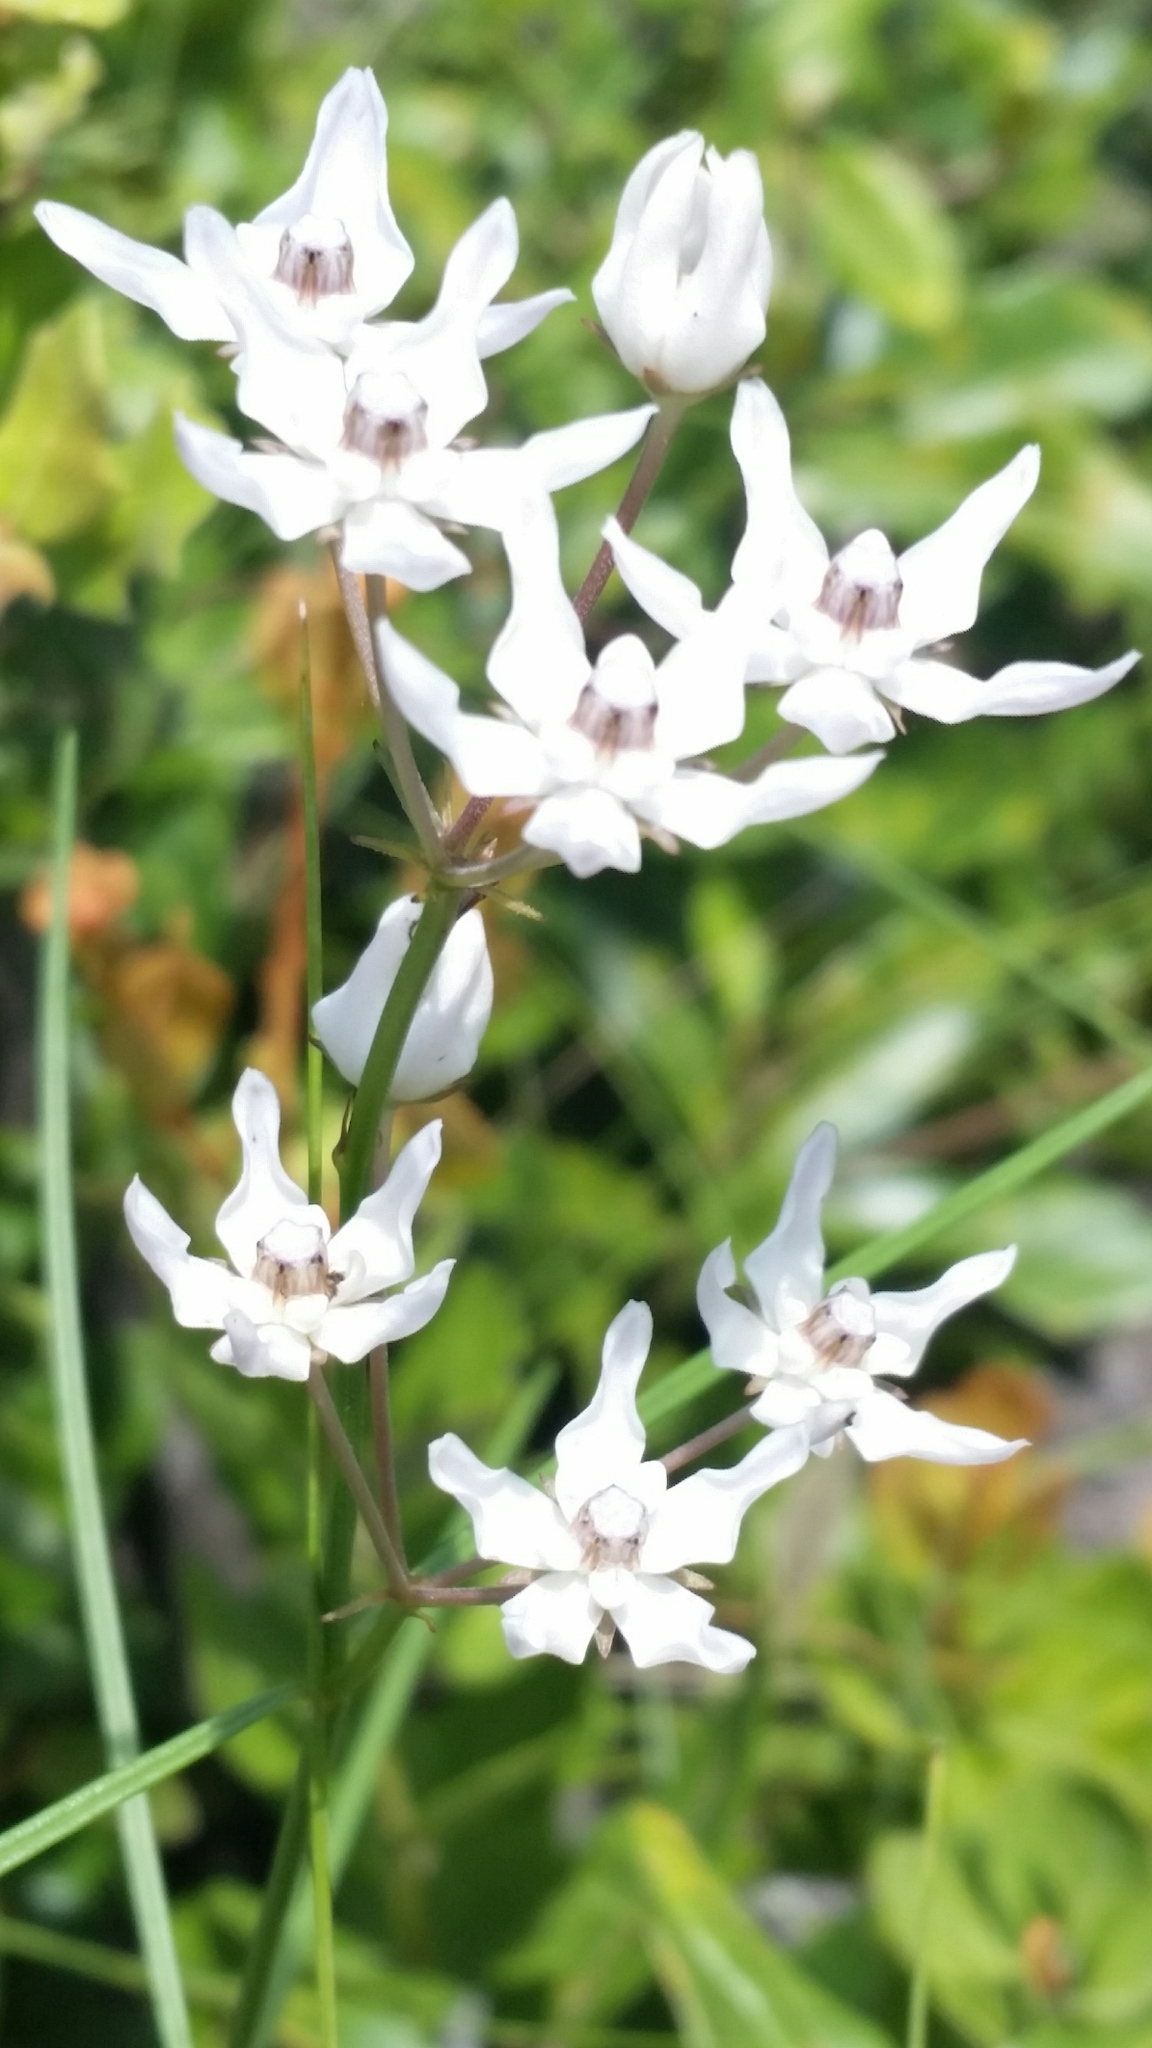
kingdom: Plantae
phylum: Tracheophyta
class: Magnoliopsida
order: Gentianales
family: Apocynaceae
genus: Asclepias
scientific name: Asclepias feayi
